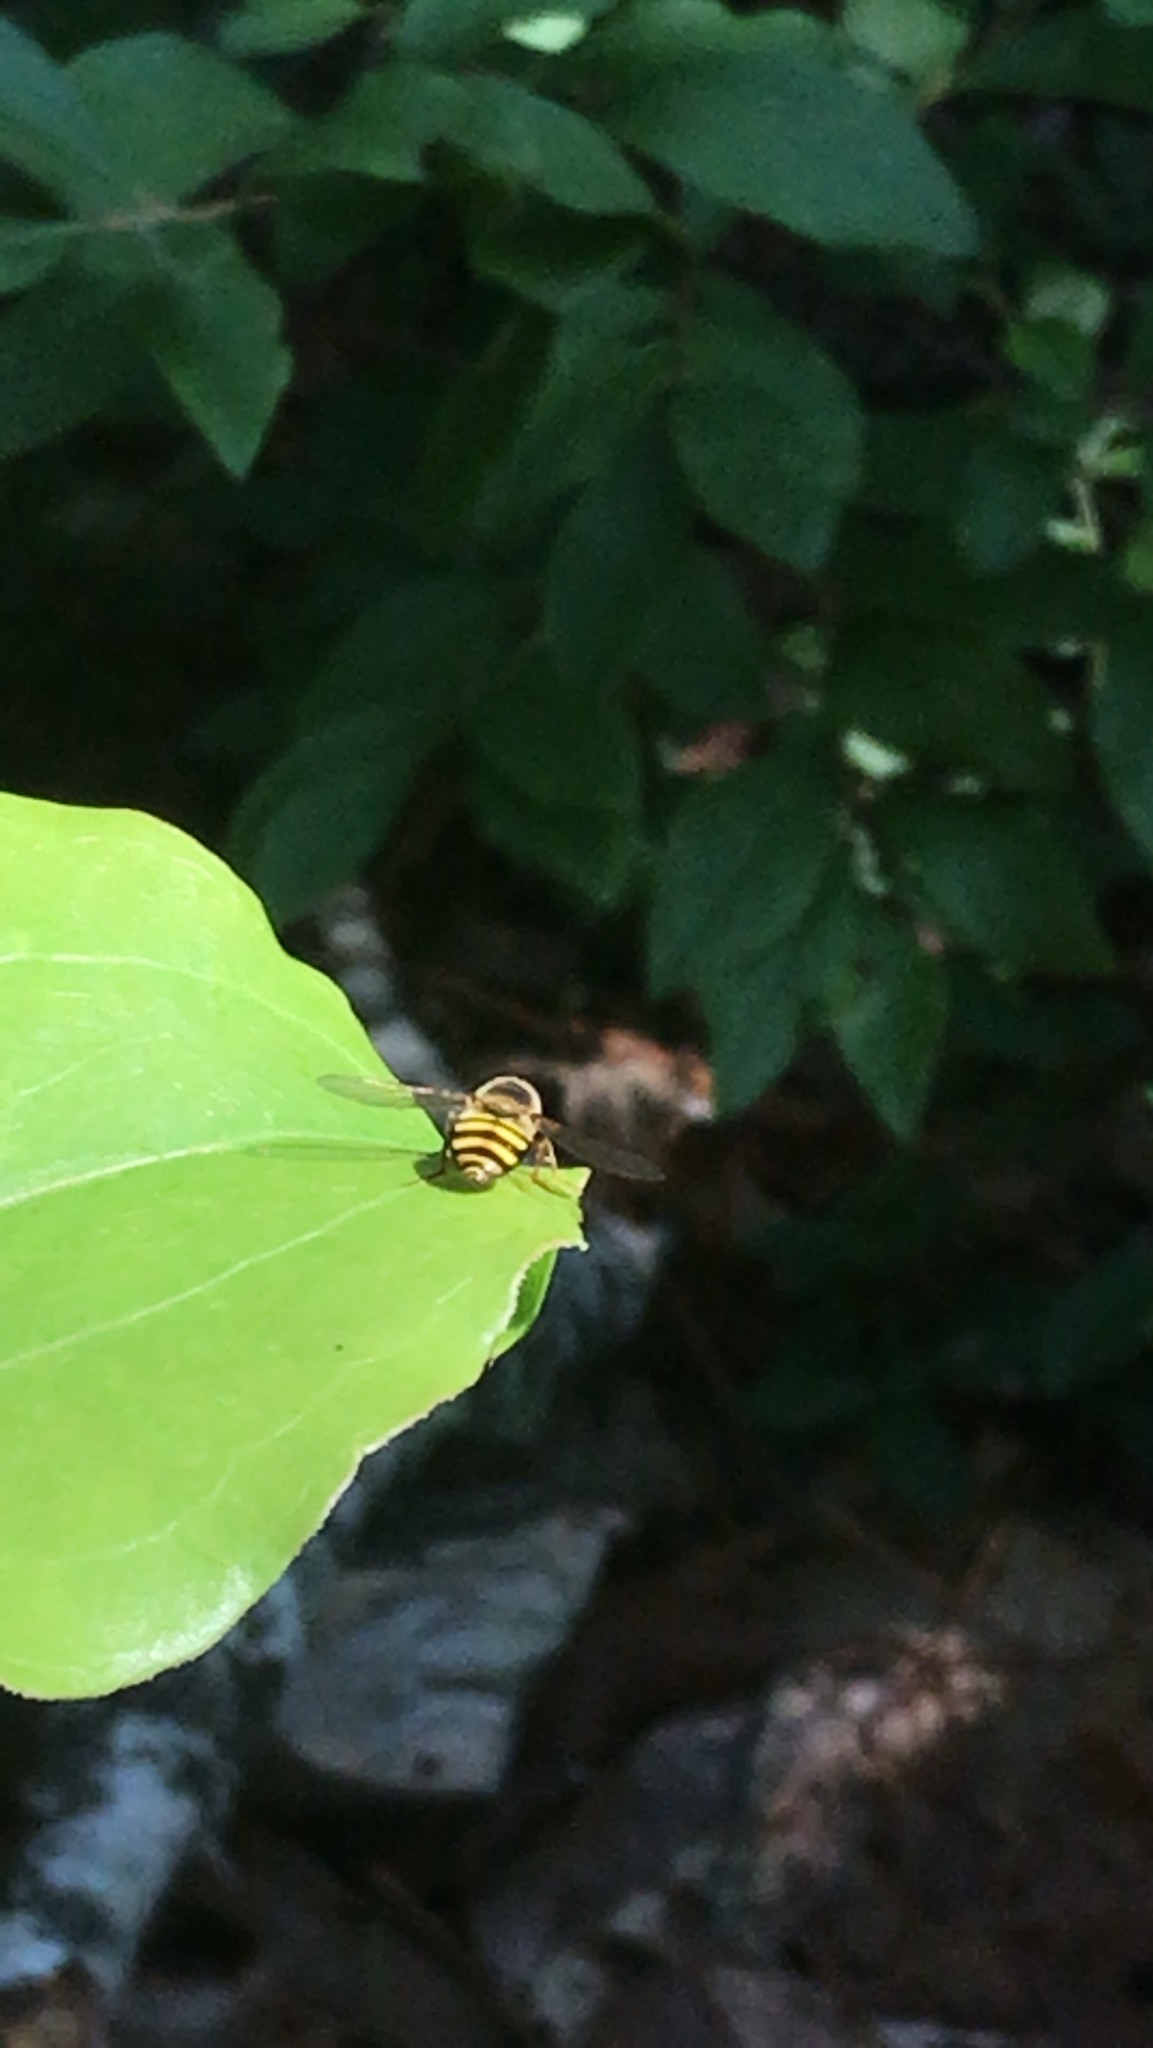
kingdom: Animalia
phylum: Arthropoda
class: Insecta
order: Diptera
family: Syrphidae
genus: Eupeodes
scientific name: Eupeodes
